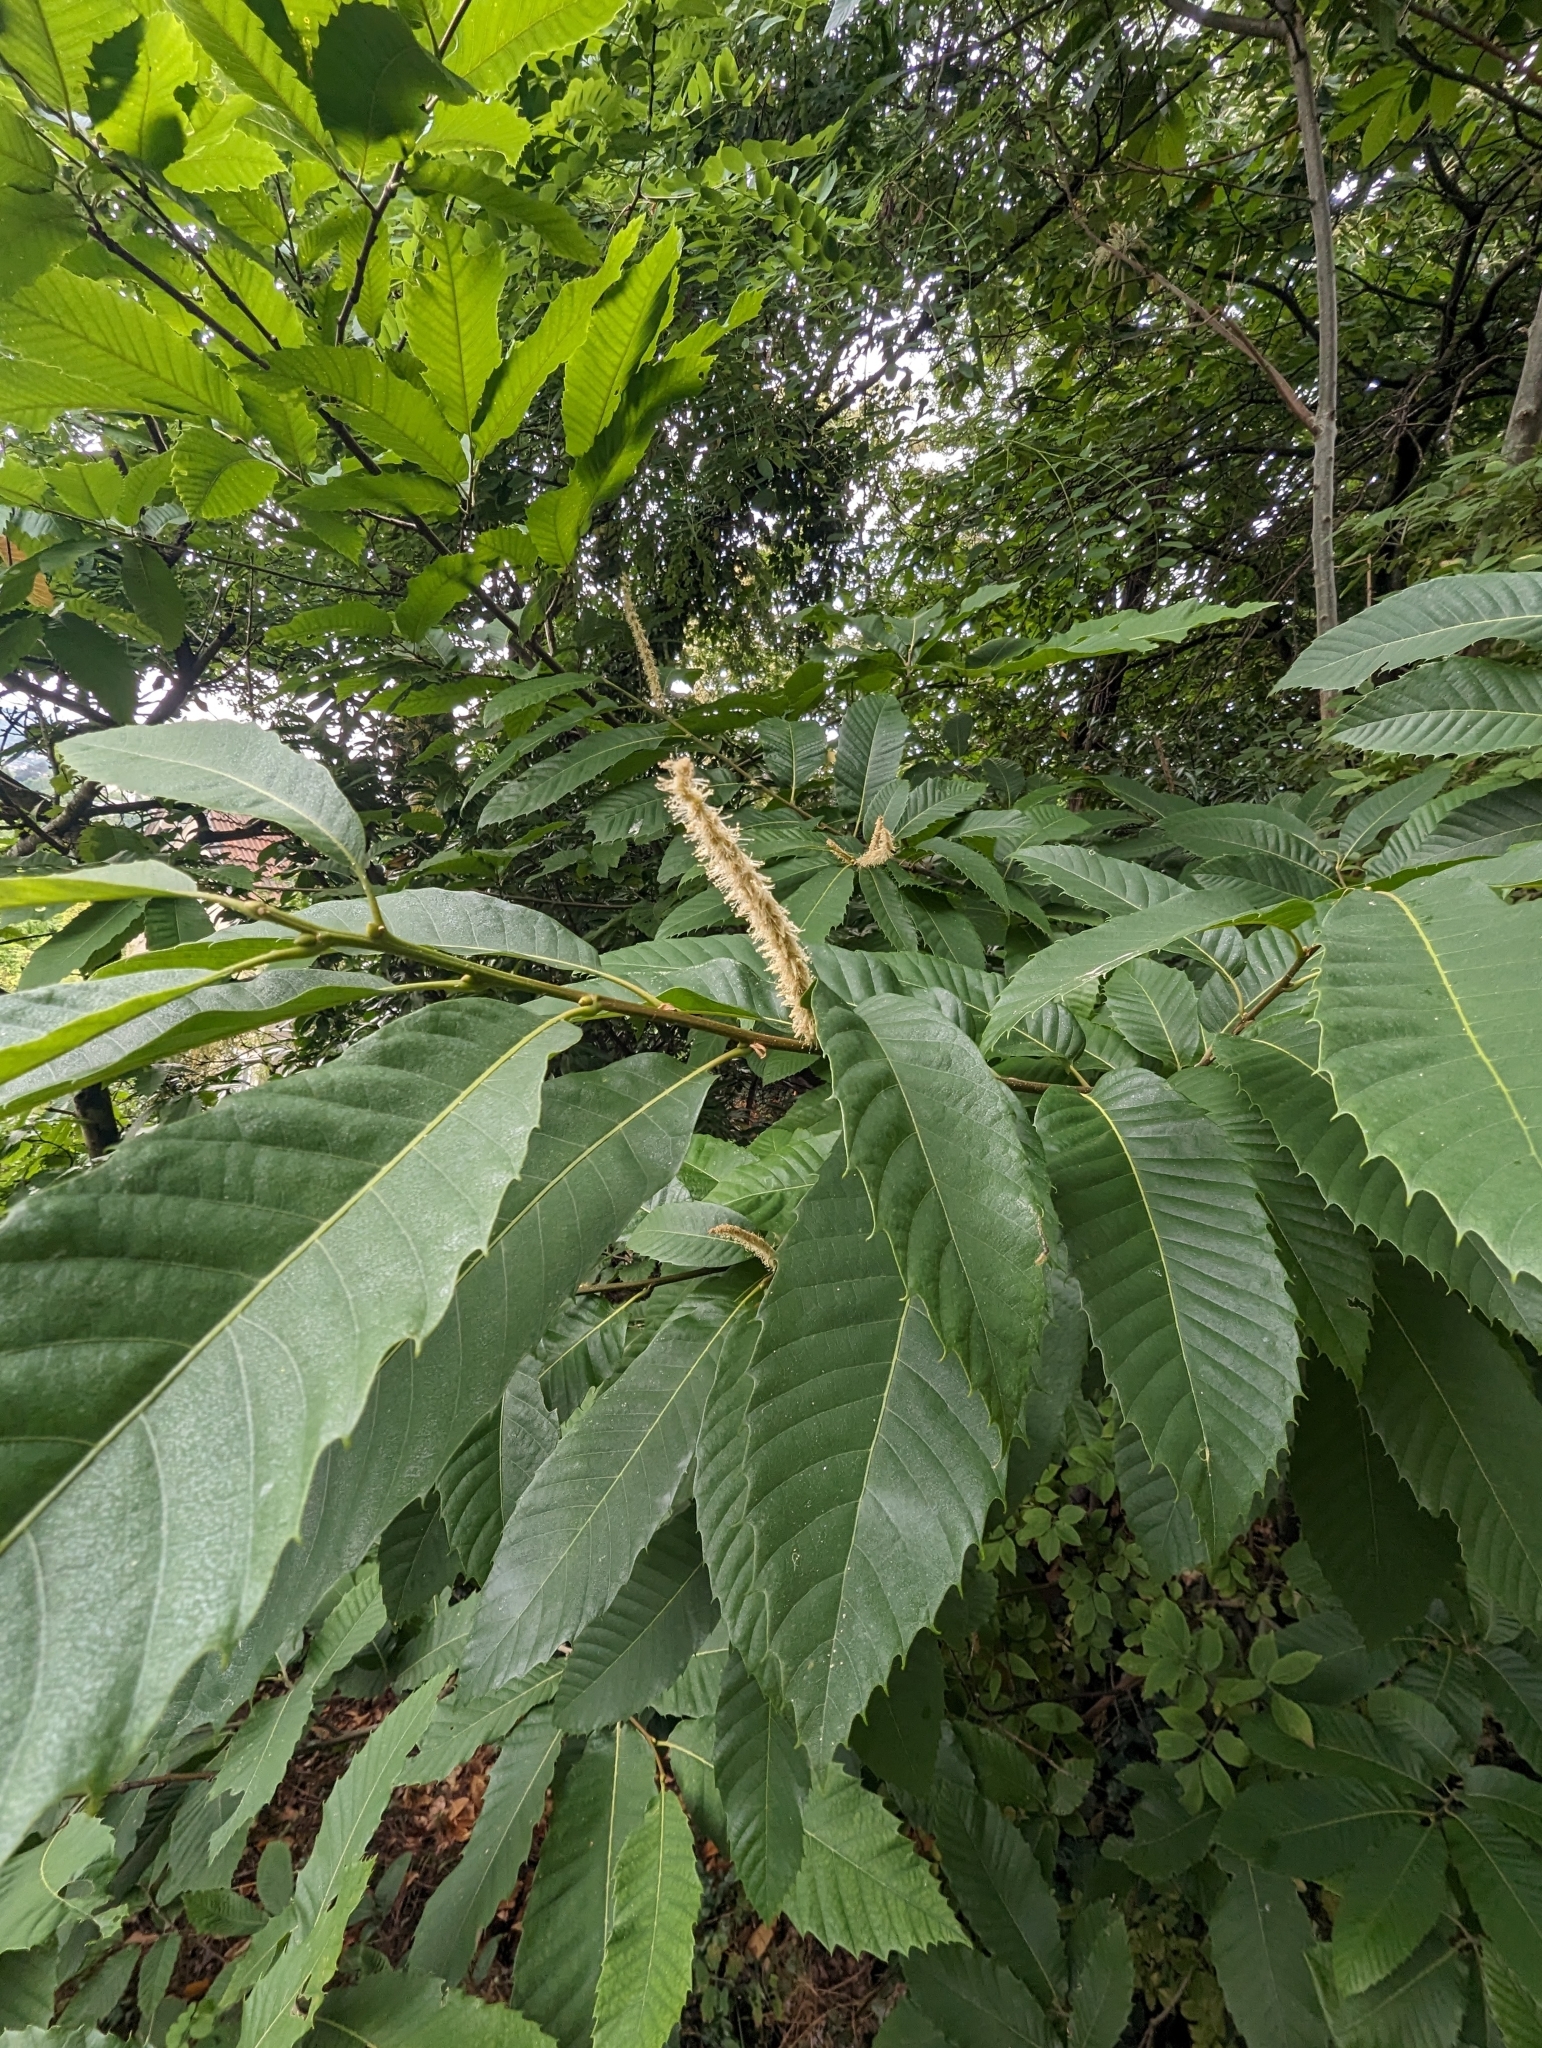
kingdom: Plantae
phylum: Tracheophyta
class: Magnoliopsida
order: Fagales
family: Fagaceae
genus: Castanea
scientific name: Castanea sativa
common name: Sweet chestnut
